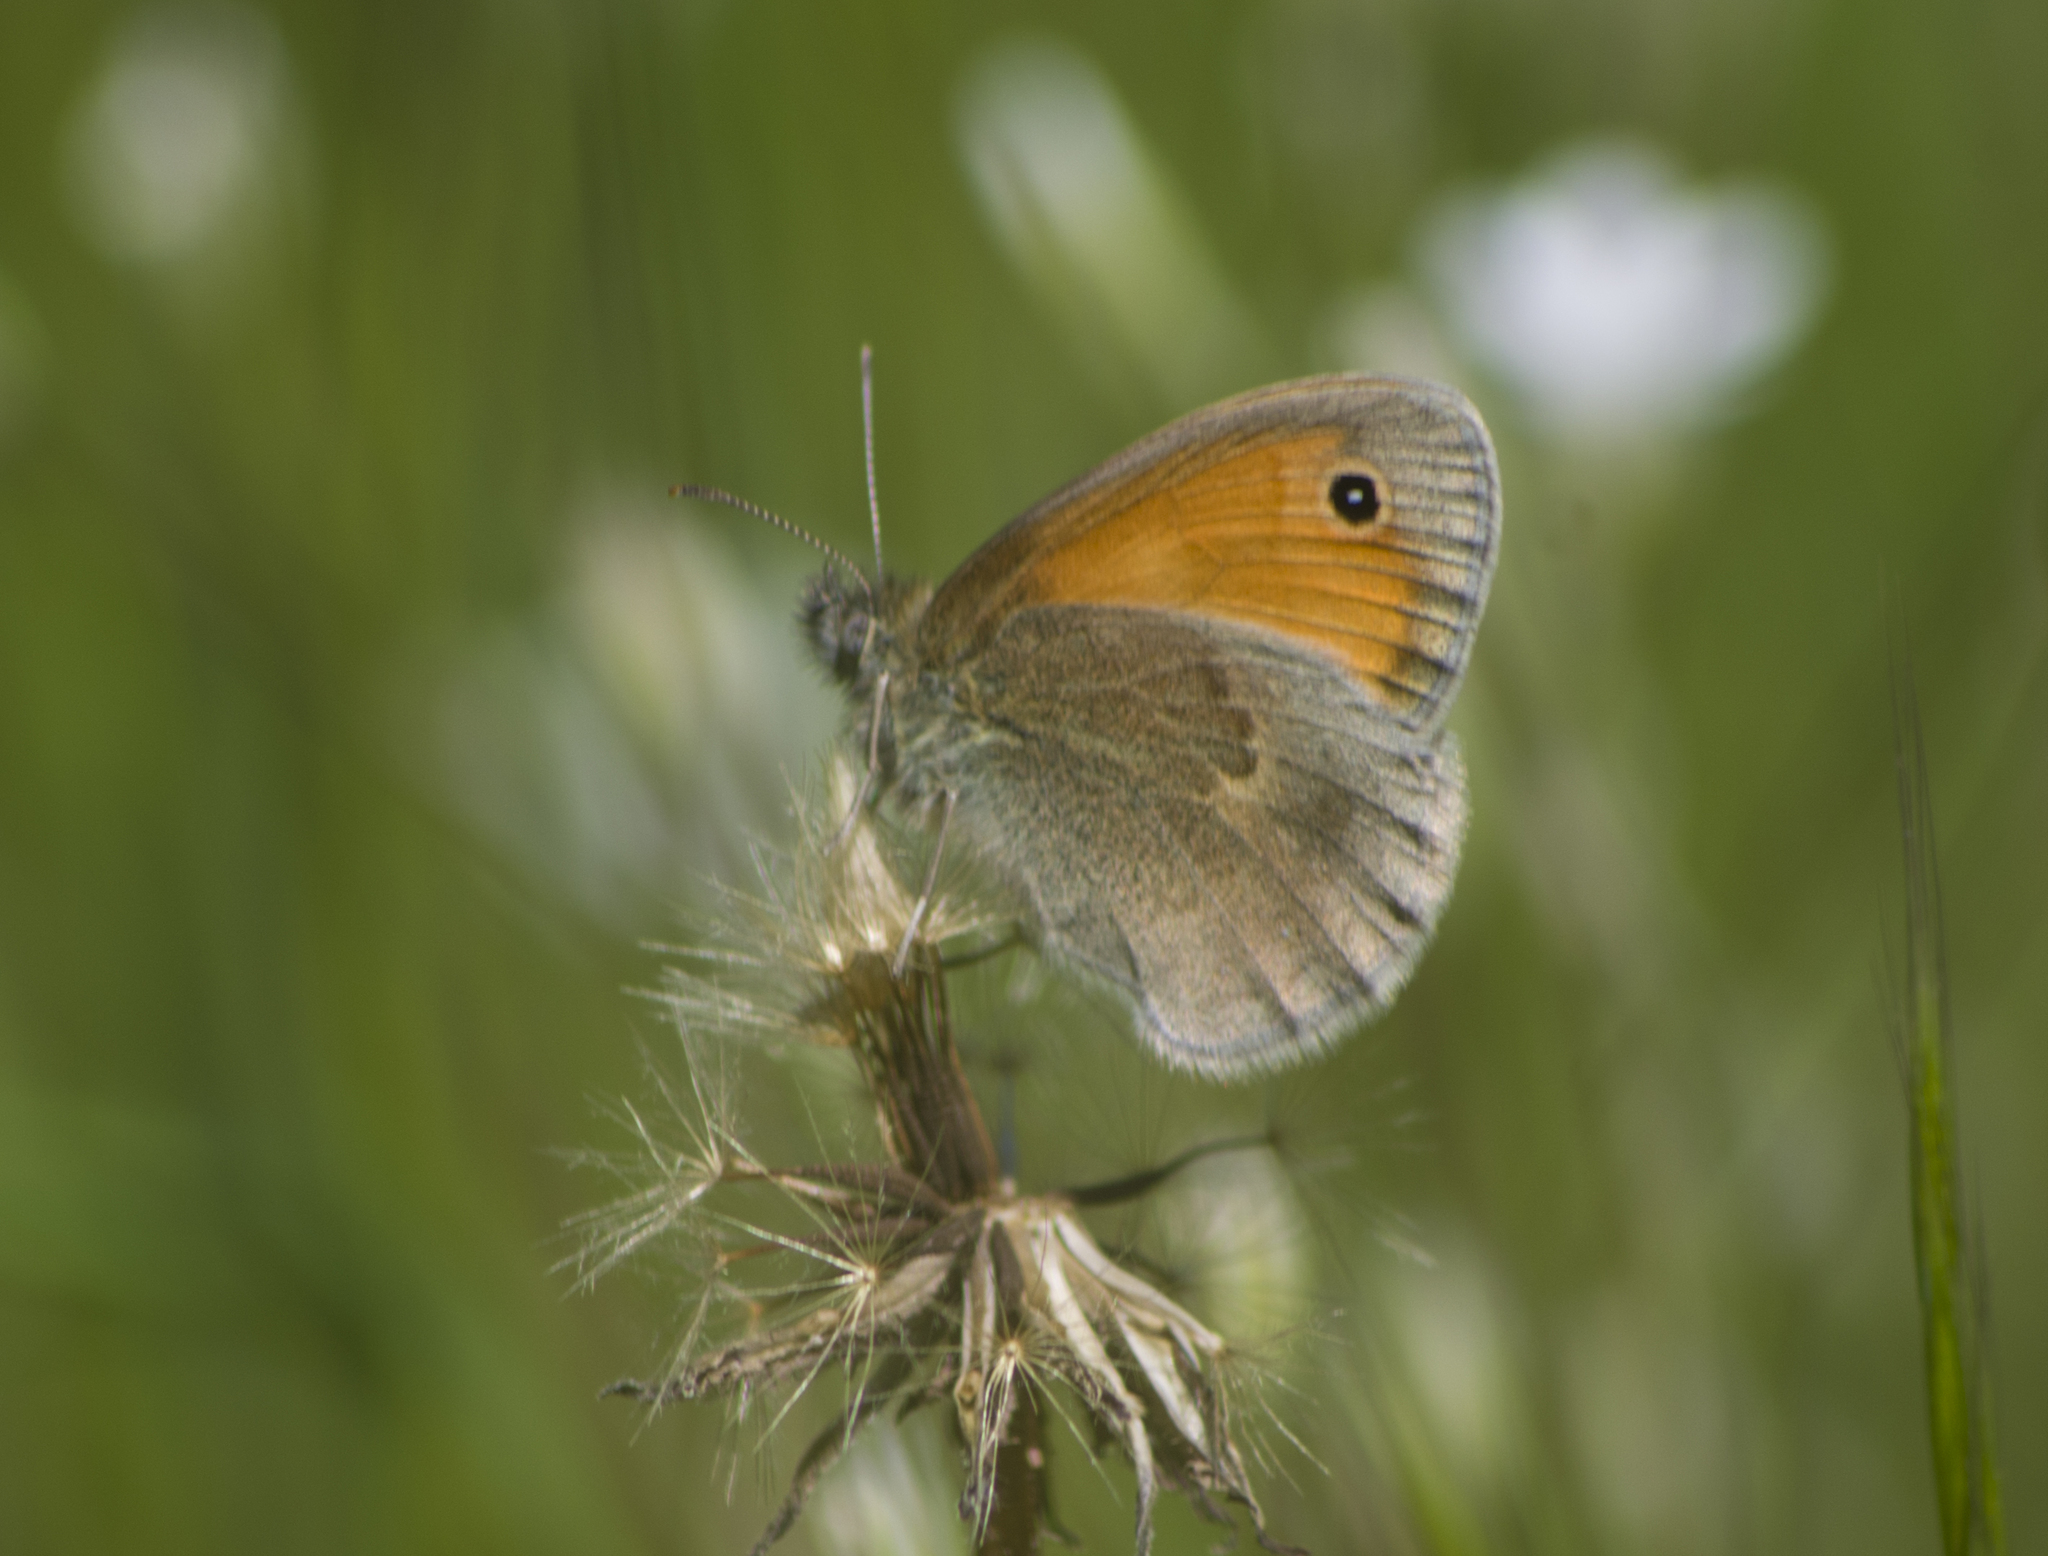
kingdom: Animalia
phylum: Arthropoda
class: Insecta
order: Lepidoptera
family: Nymphalidae
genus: Coenonympha
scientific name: Coenonympha pamphilus
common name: Small heath
